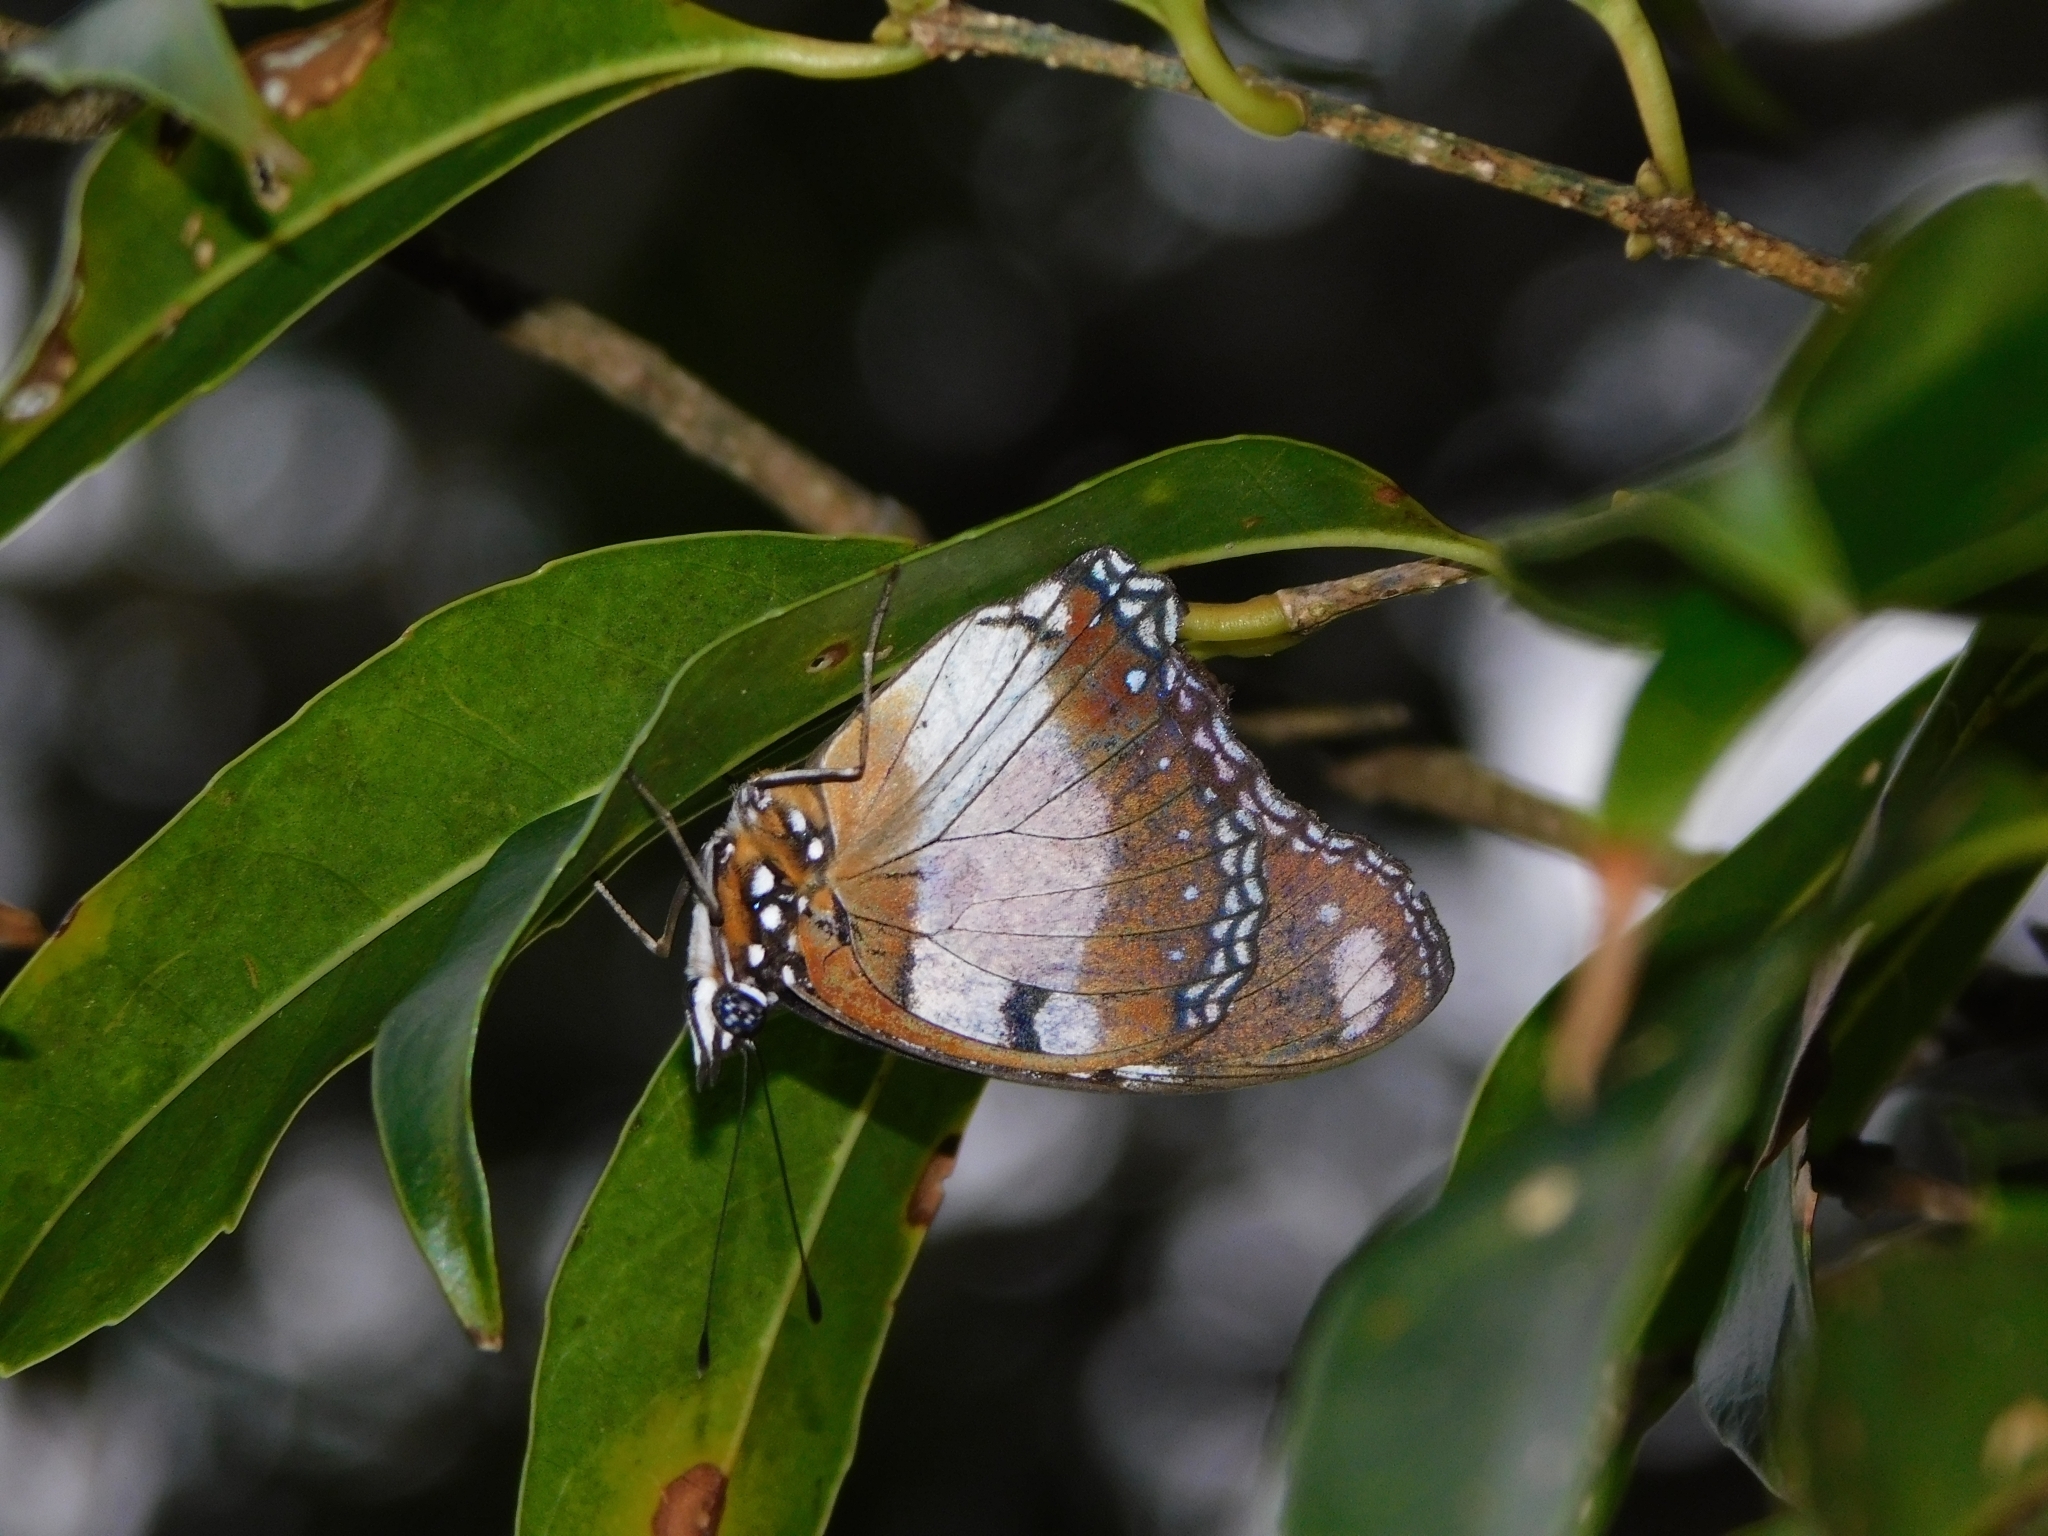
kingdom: Animalia
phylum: Arthropoda
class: Insecta
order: Lepidoptera
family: Nymphalidae
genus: Hypolimnas
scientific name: Hypolimnas misippus
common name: False plain tiger
